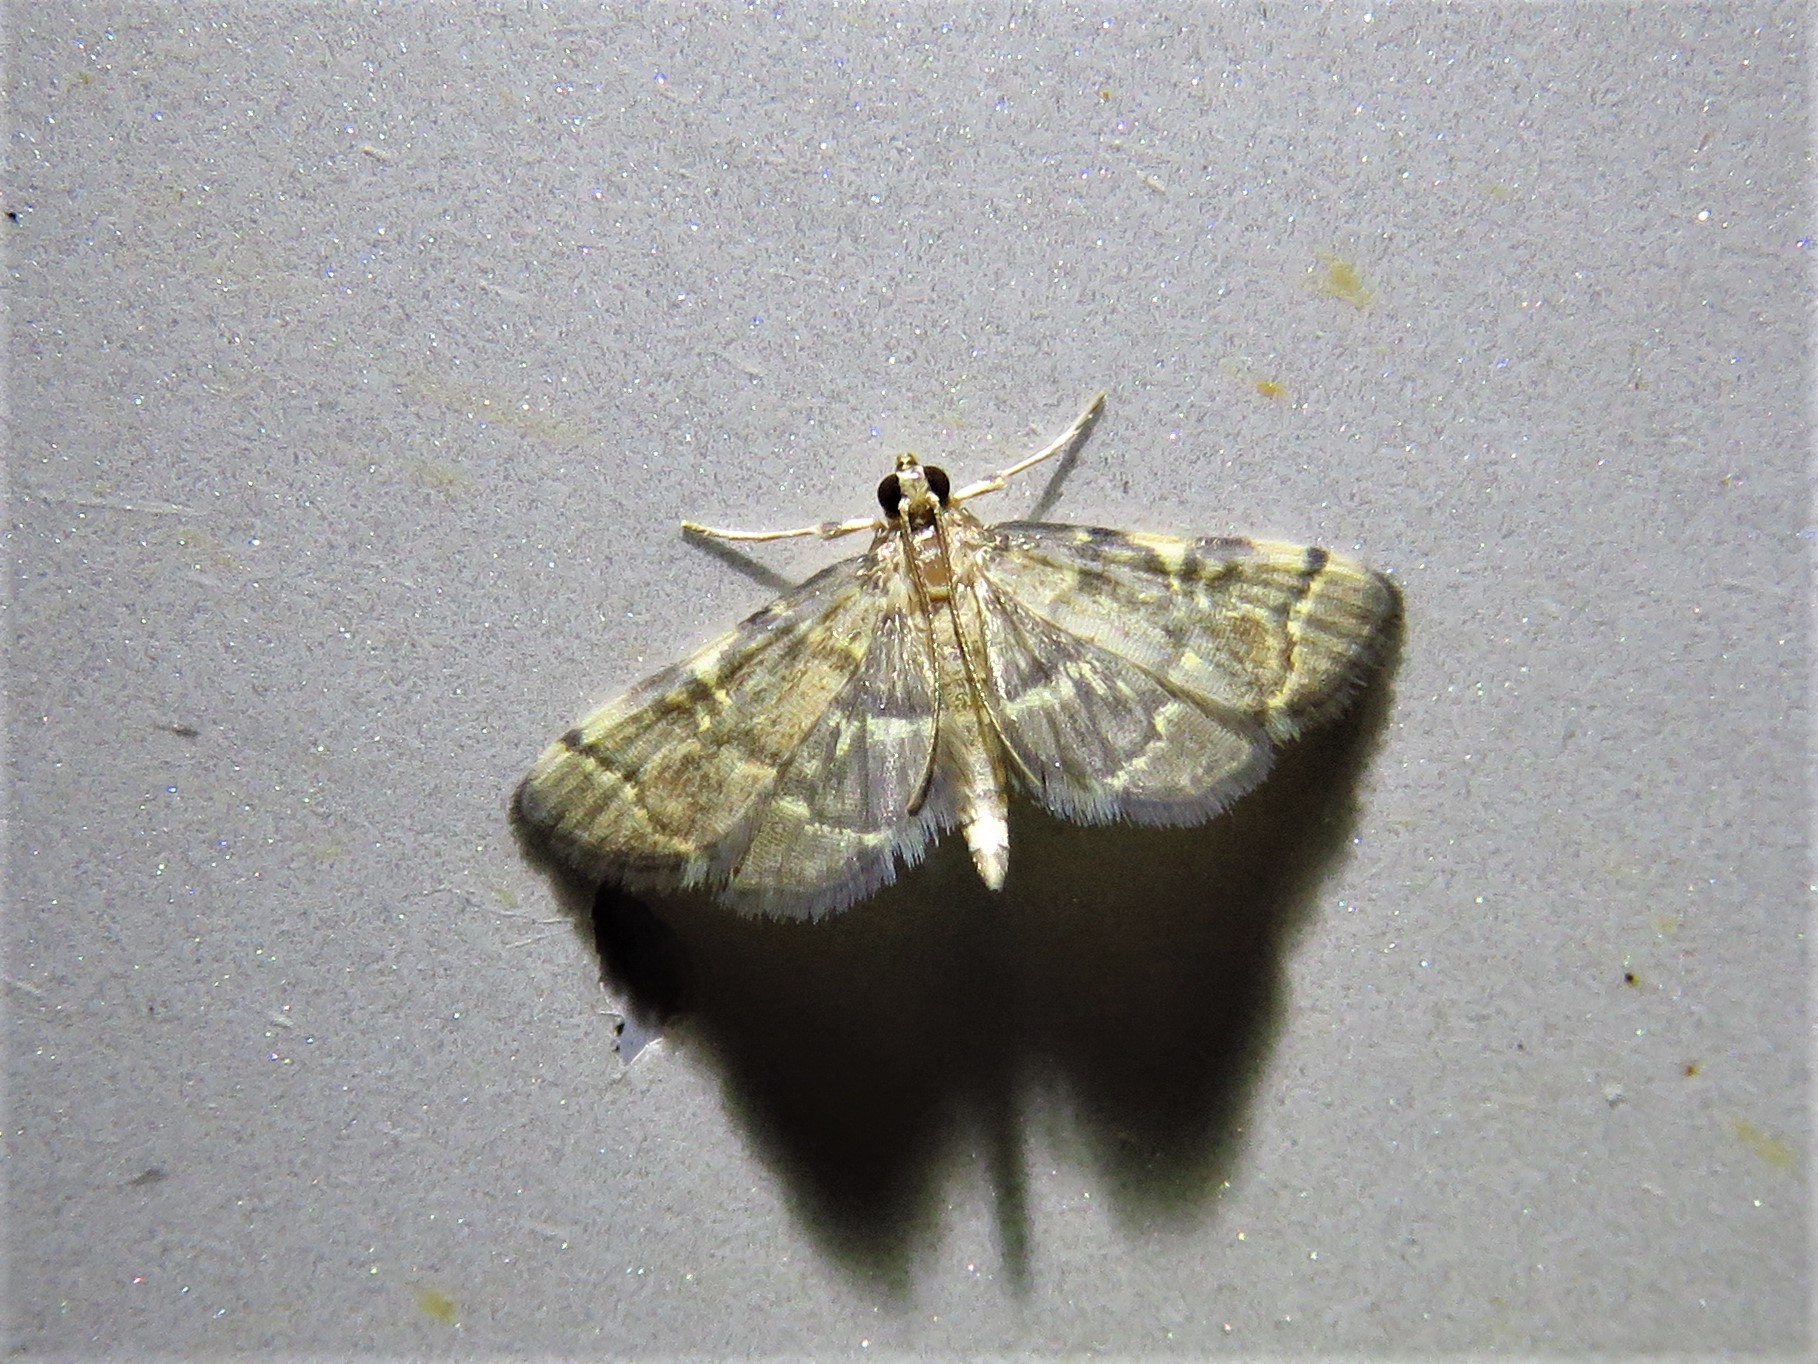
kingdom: Animalia
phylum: Arthropoda
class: Insecta
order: Lepidoptera
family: Crambidae
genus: Anageshna
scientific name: Anageshna primordialis
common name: Yellow-spotted webworm moth
